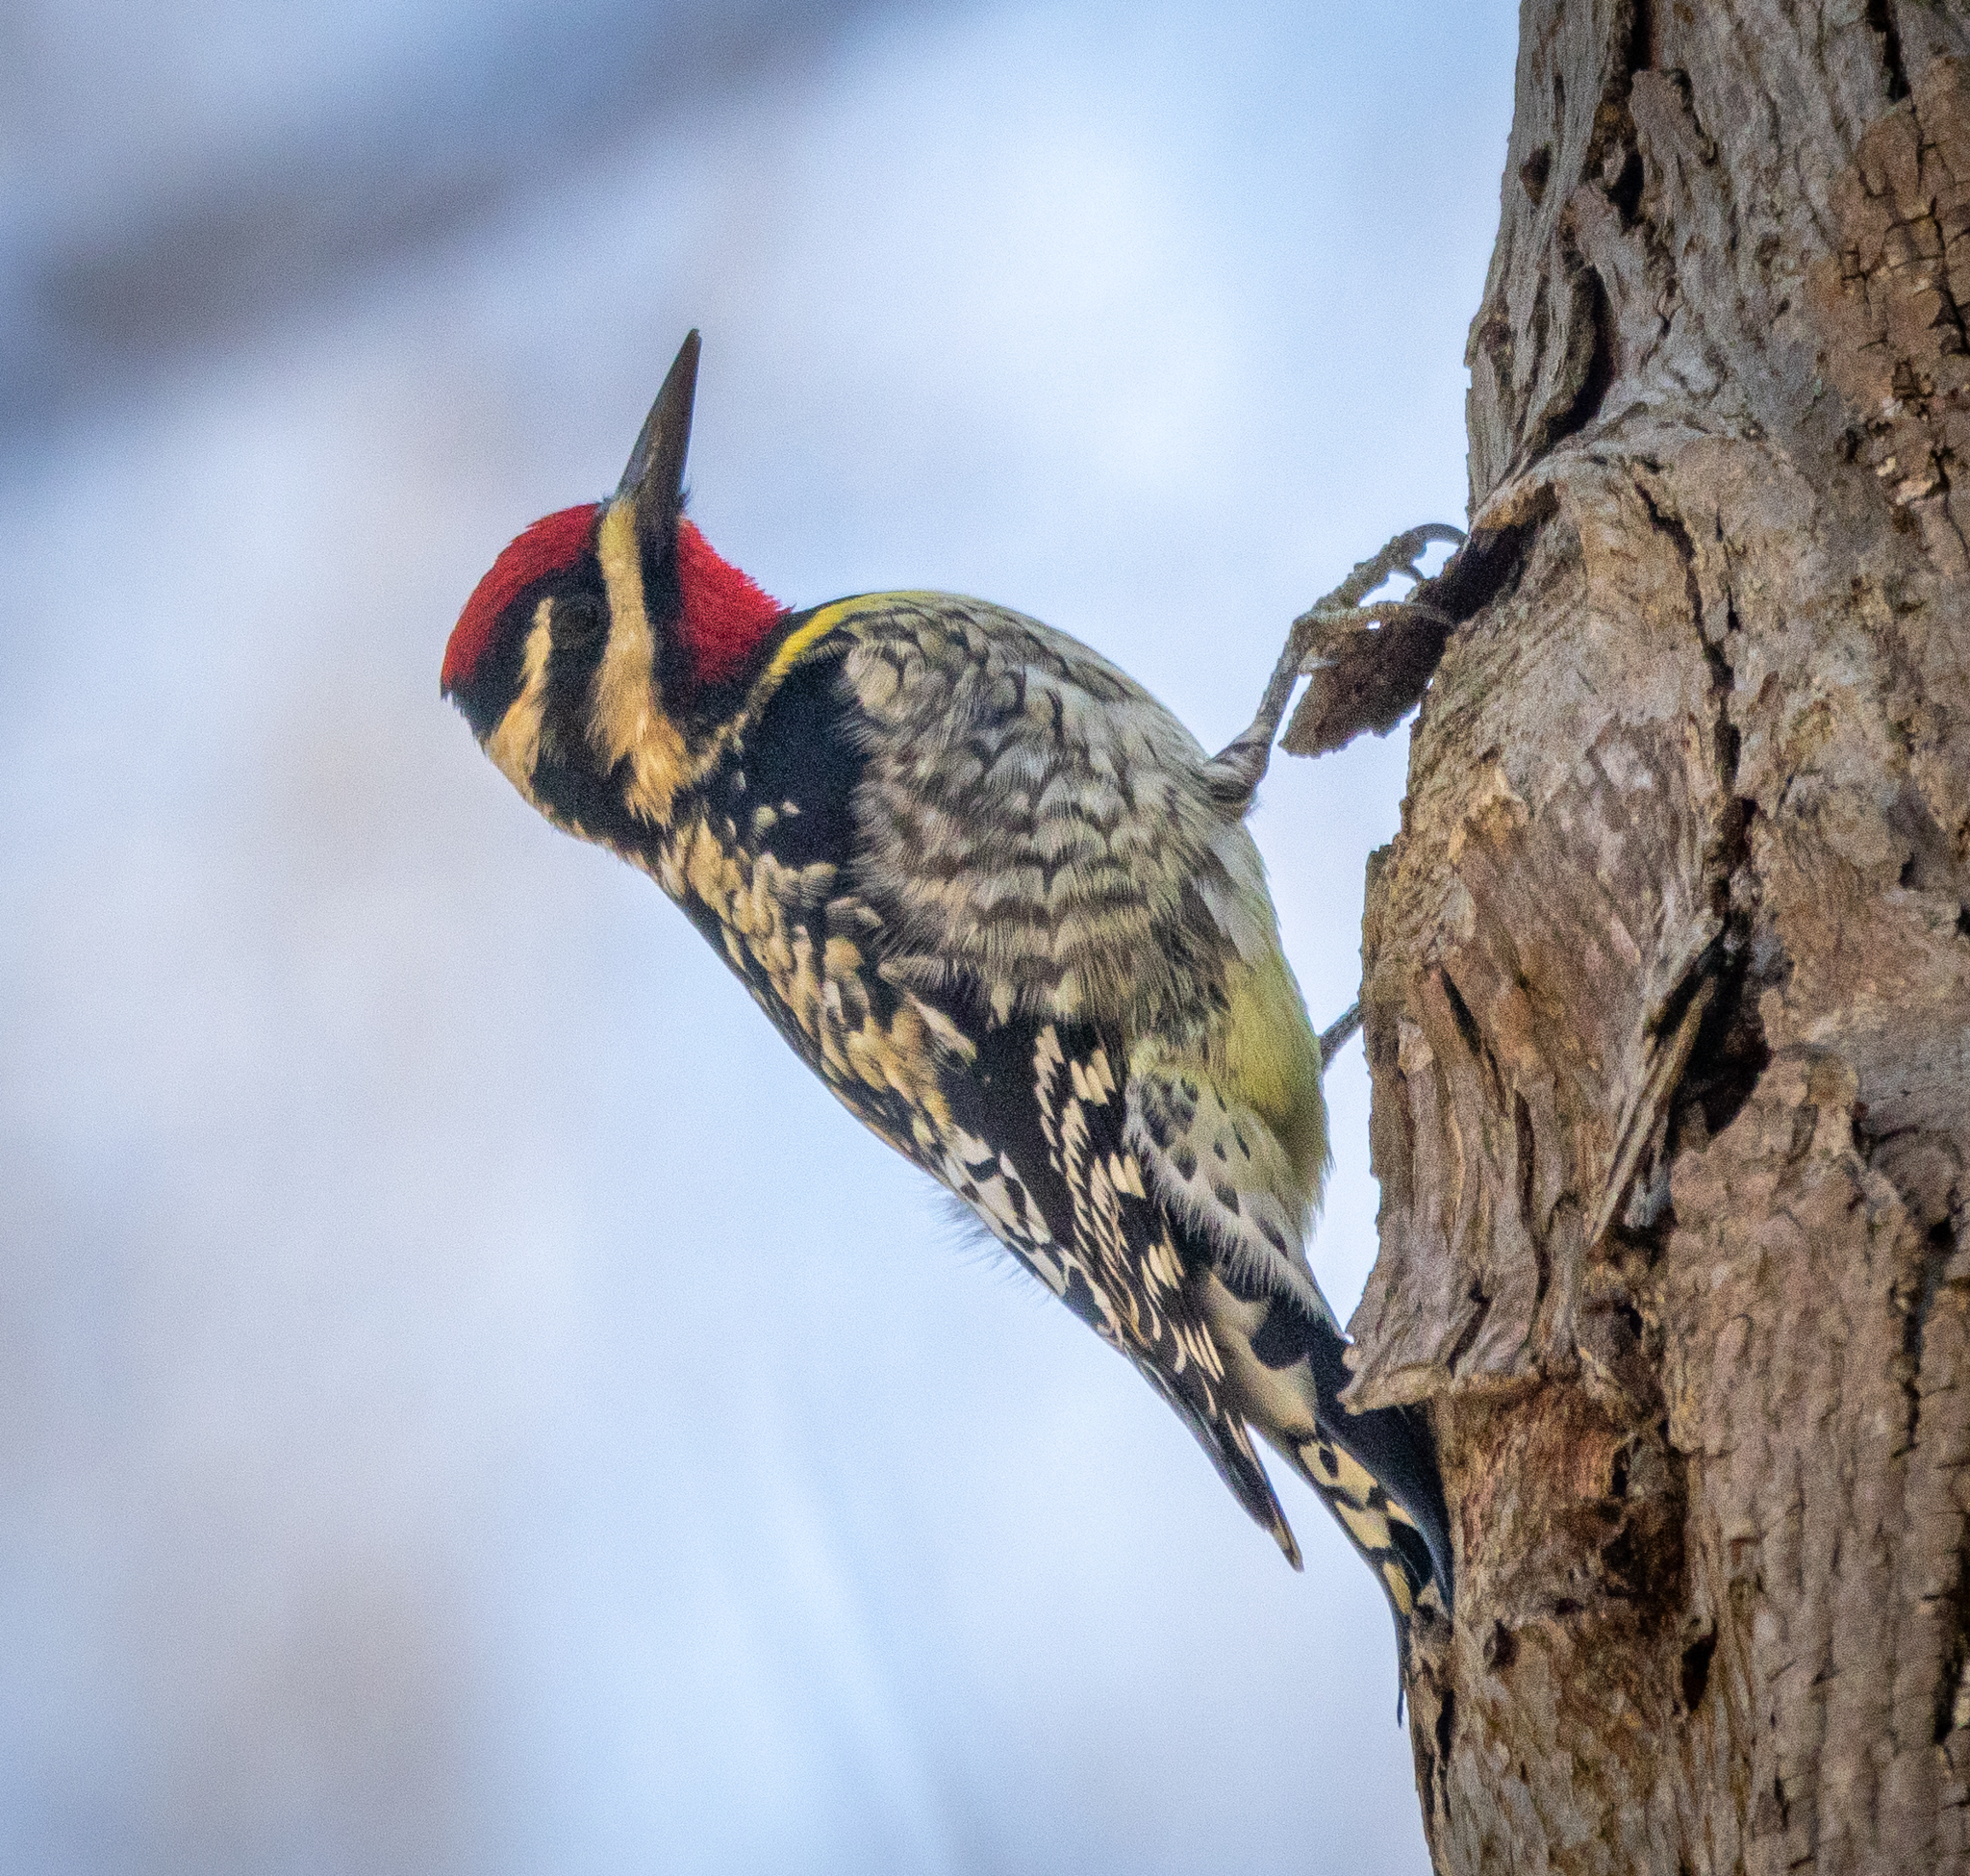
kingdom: Animalia
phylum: Chordata
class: Aves
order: Piciformes
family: Picidae
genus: Sphyrapicus
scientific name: Sphyrapicus varius
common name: Yellow-bellied sapsucker
